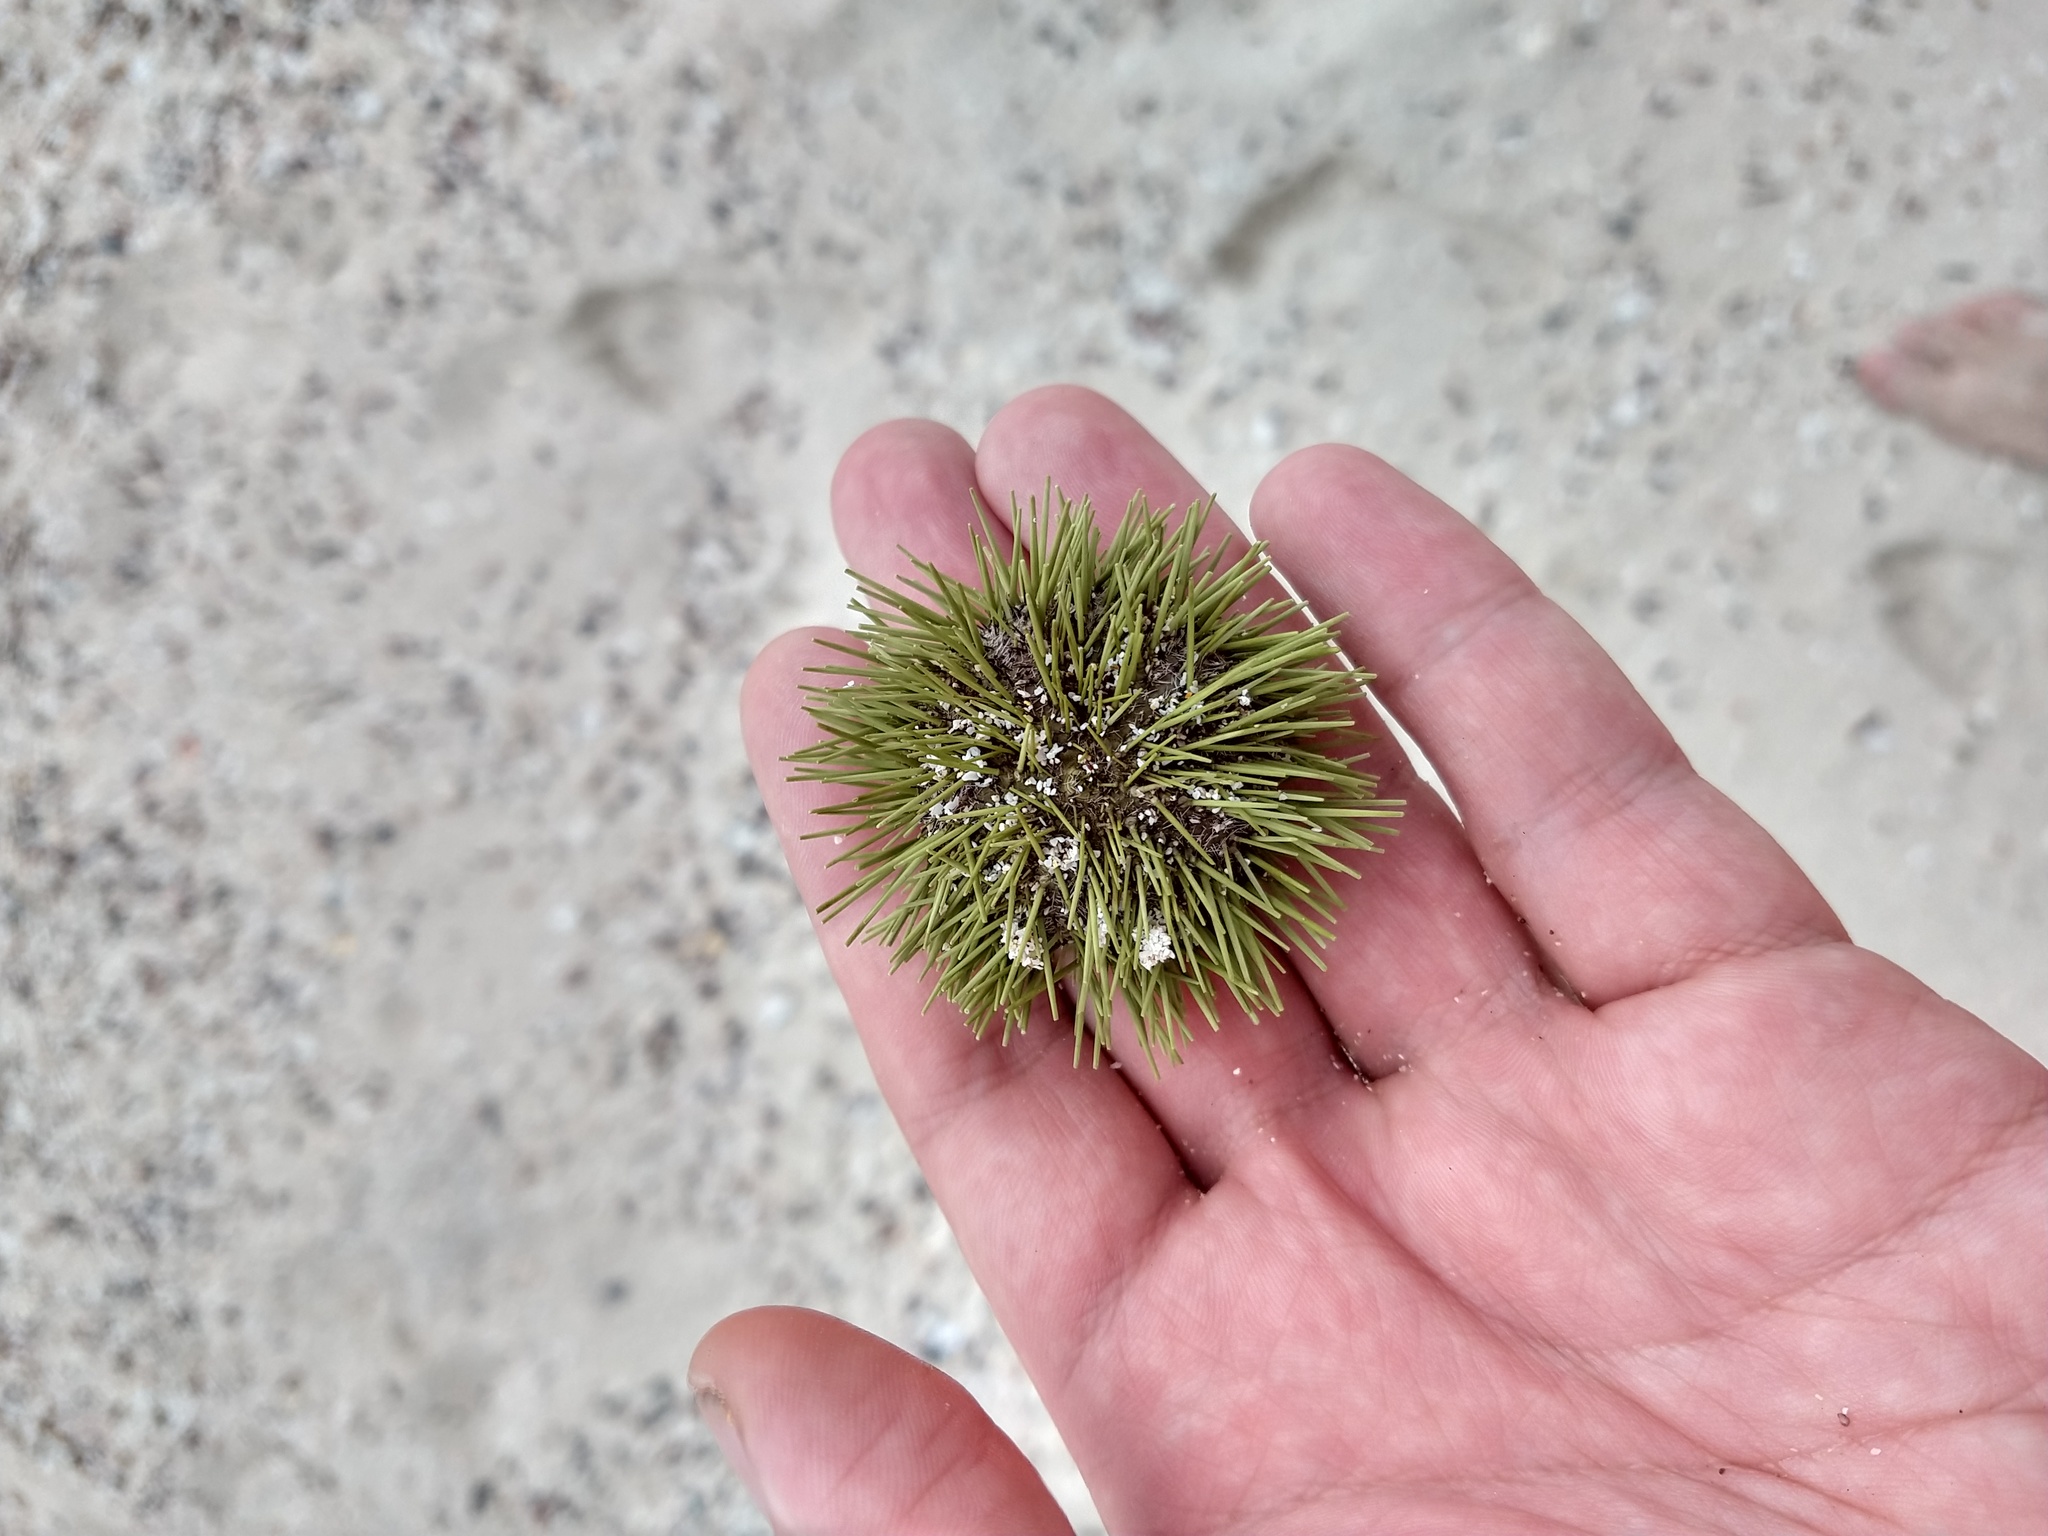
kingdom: Animalia
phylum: Echinodermata
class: Echinoidea
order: Camarodonta
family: Toxopneustidae
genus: Lytechinus
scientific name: Lytechinus semituberculatus
